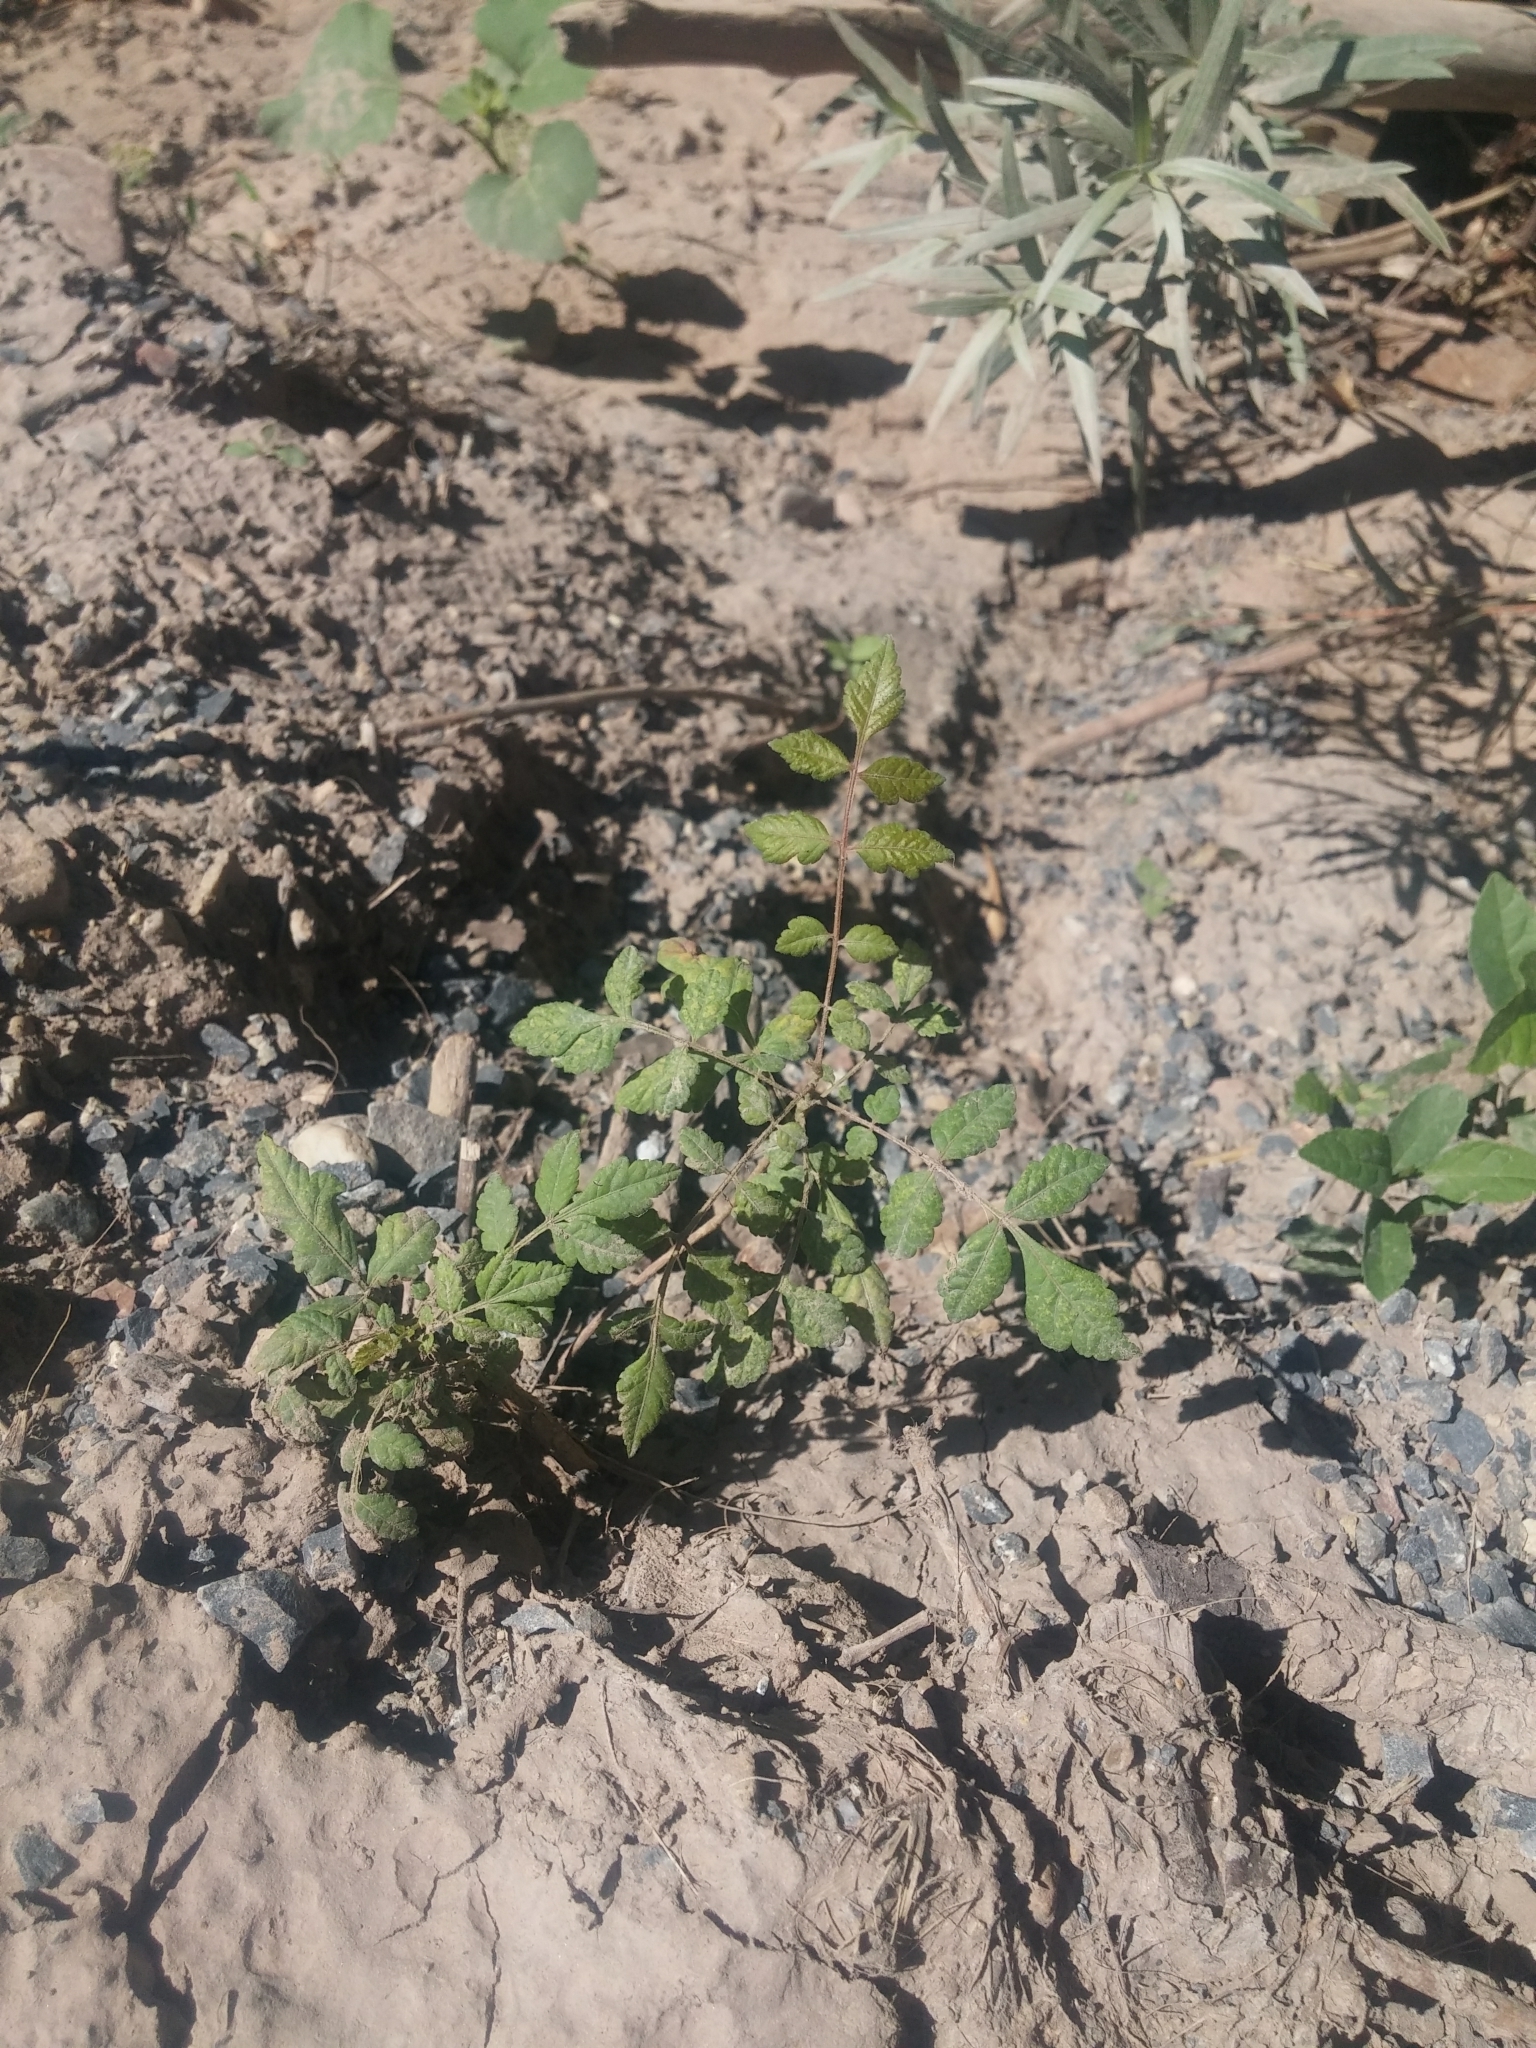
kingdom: Plantae
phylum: Tracheophyta
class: Magnoliopsida
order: Sapindales
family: Sapindaceae
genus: Koelreuteria
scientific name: Koelreuteria paniculata
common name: Pride-of-india
